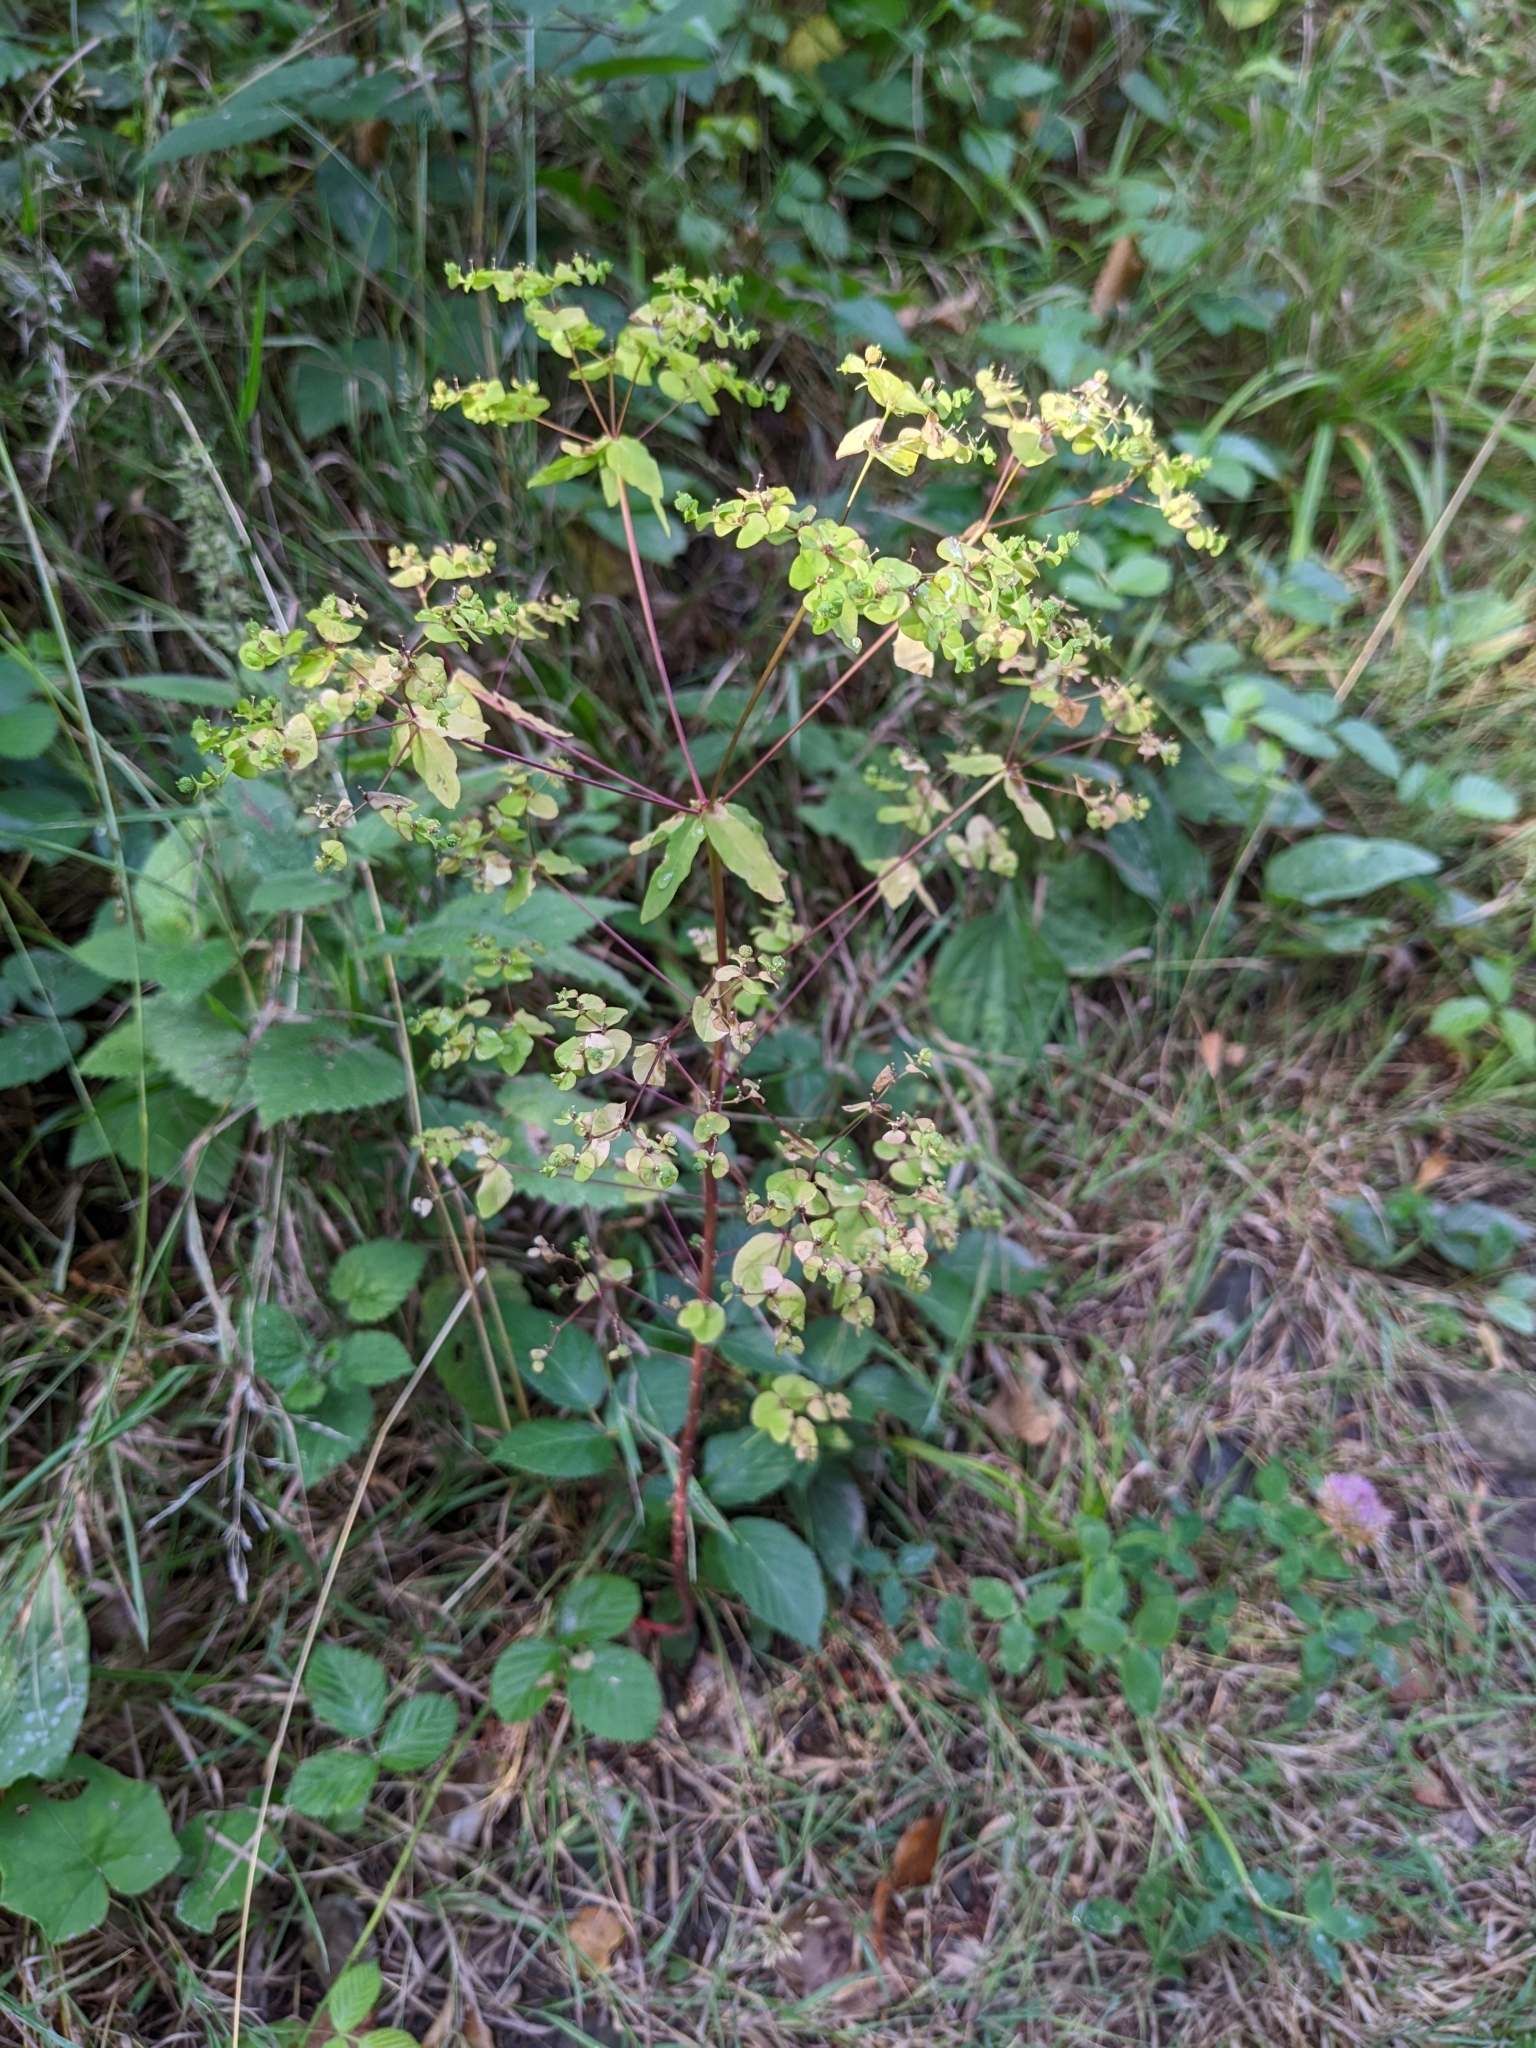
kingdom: Plantae
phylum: Tracheophyta
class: Magnoliopsida
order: Malpighiales
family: Euphorbiaceae
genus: Euphorbia
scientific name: Euphorbia stricta
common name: Upright spurge
